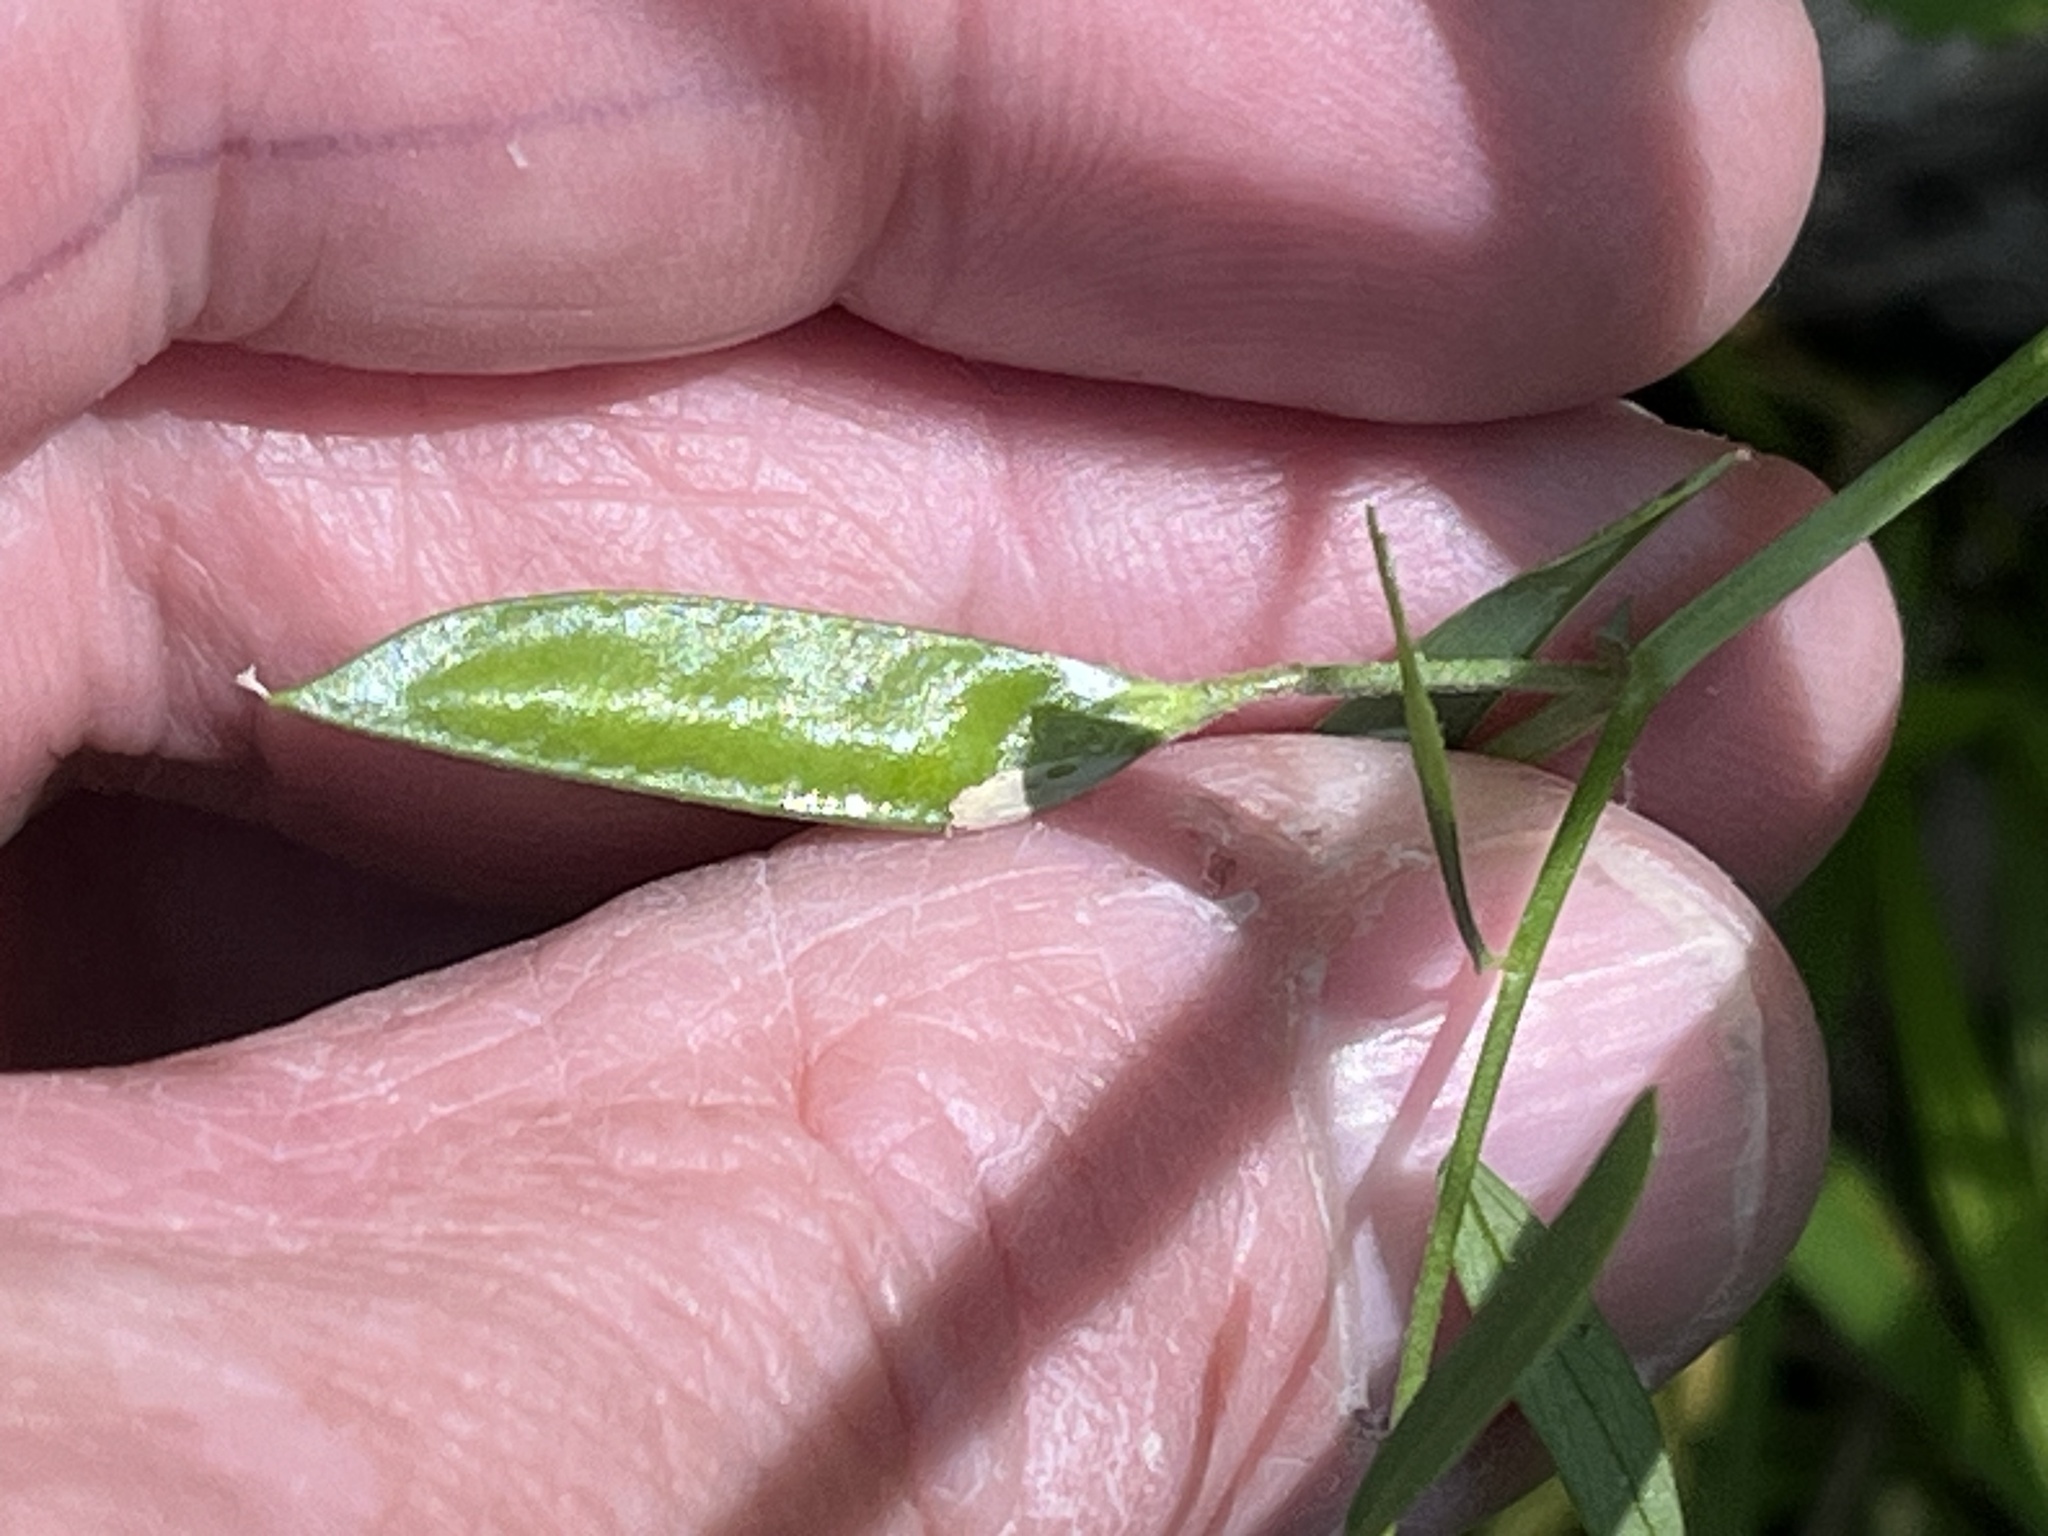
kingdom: Plantae
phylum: Tracheophyta
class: Magnoliopsida
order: Fabales
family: Fabaceae
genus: Vicia
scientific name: Vicia minutiflora
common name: Pygmy-flower vetch
